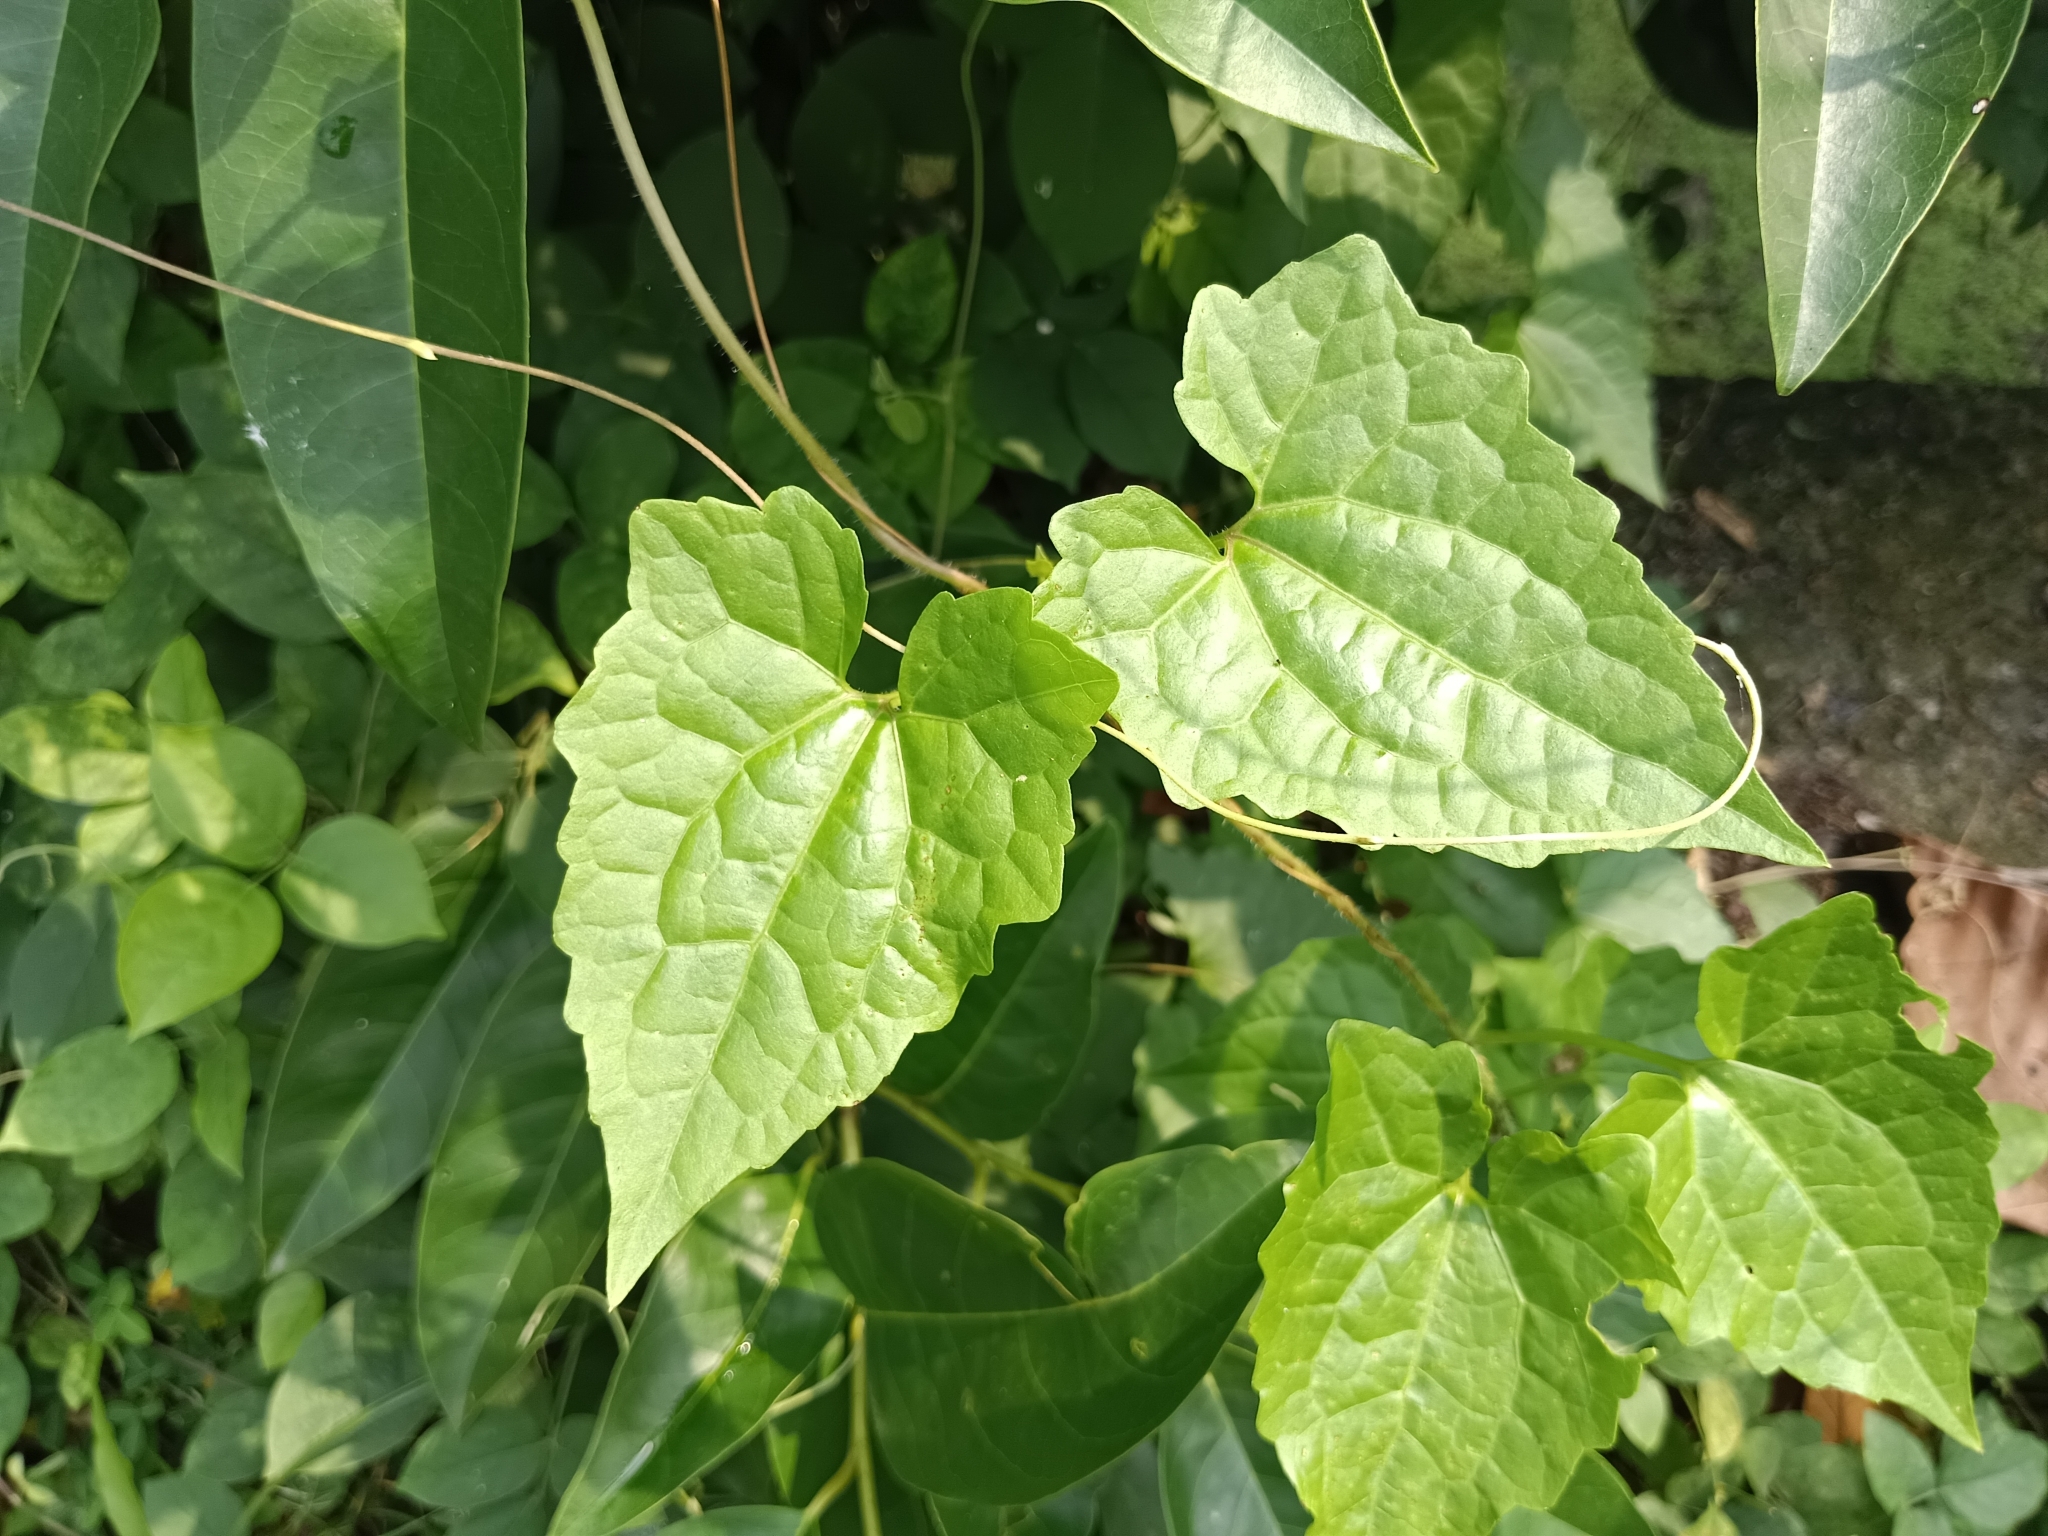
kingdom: Plantae
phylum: Tracheophyta
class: Magnoliopsida
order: Asterales
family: Asteraceae
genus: Mikania
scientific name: Mikania micrantha
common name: Mile-a-minute
